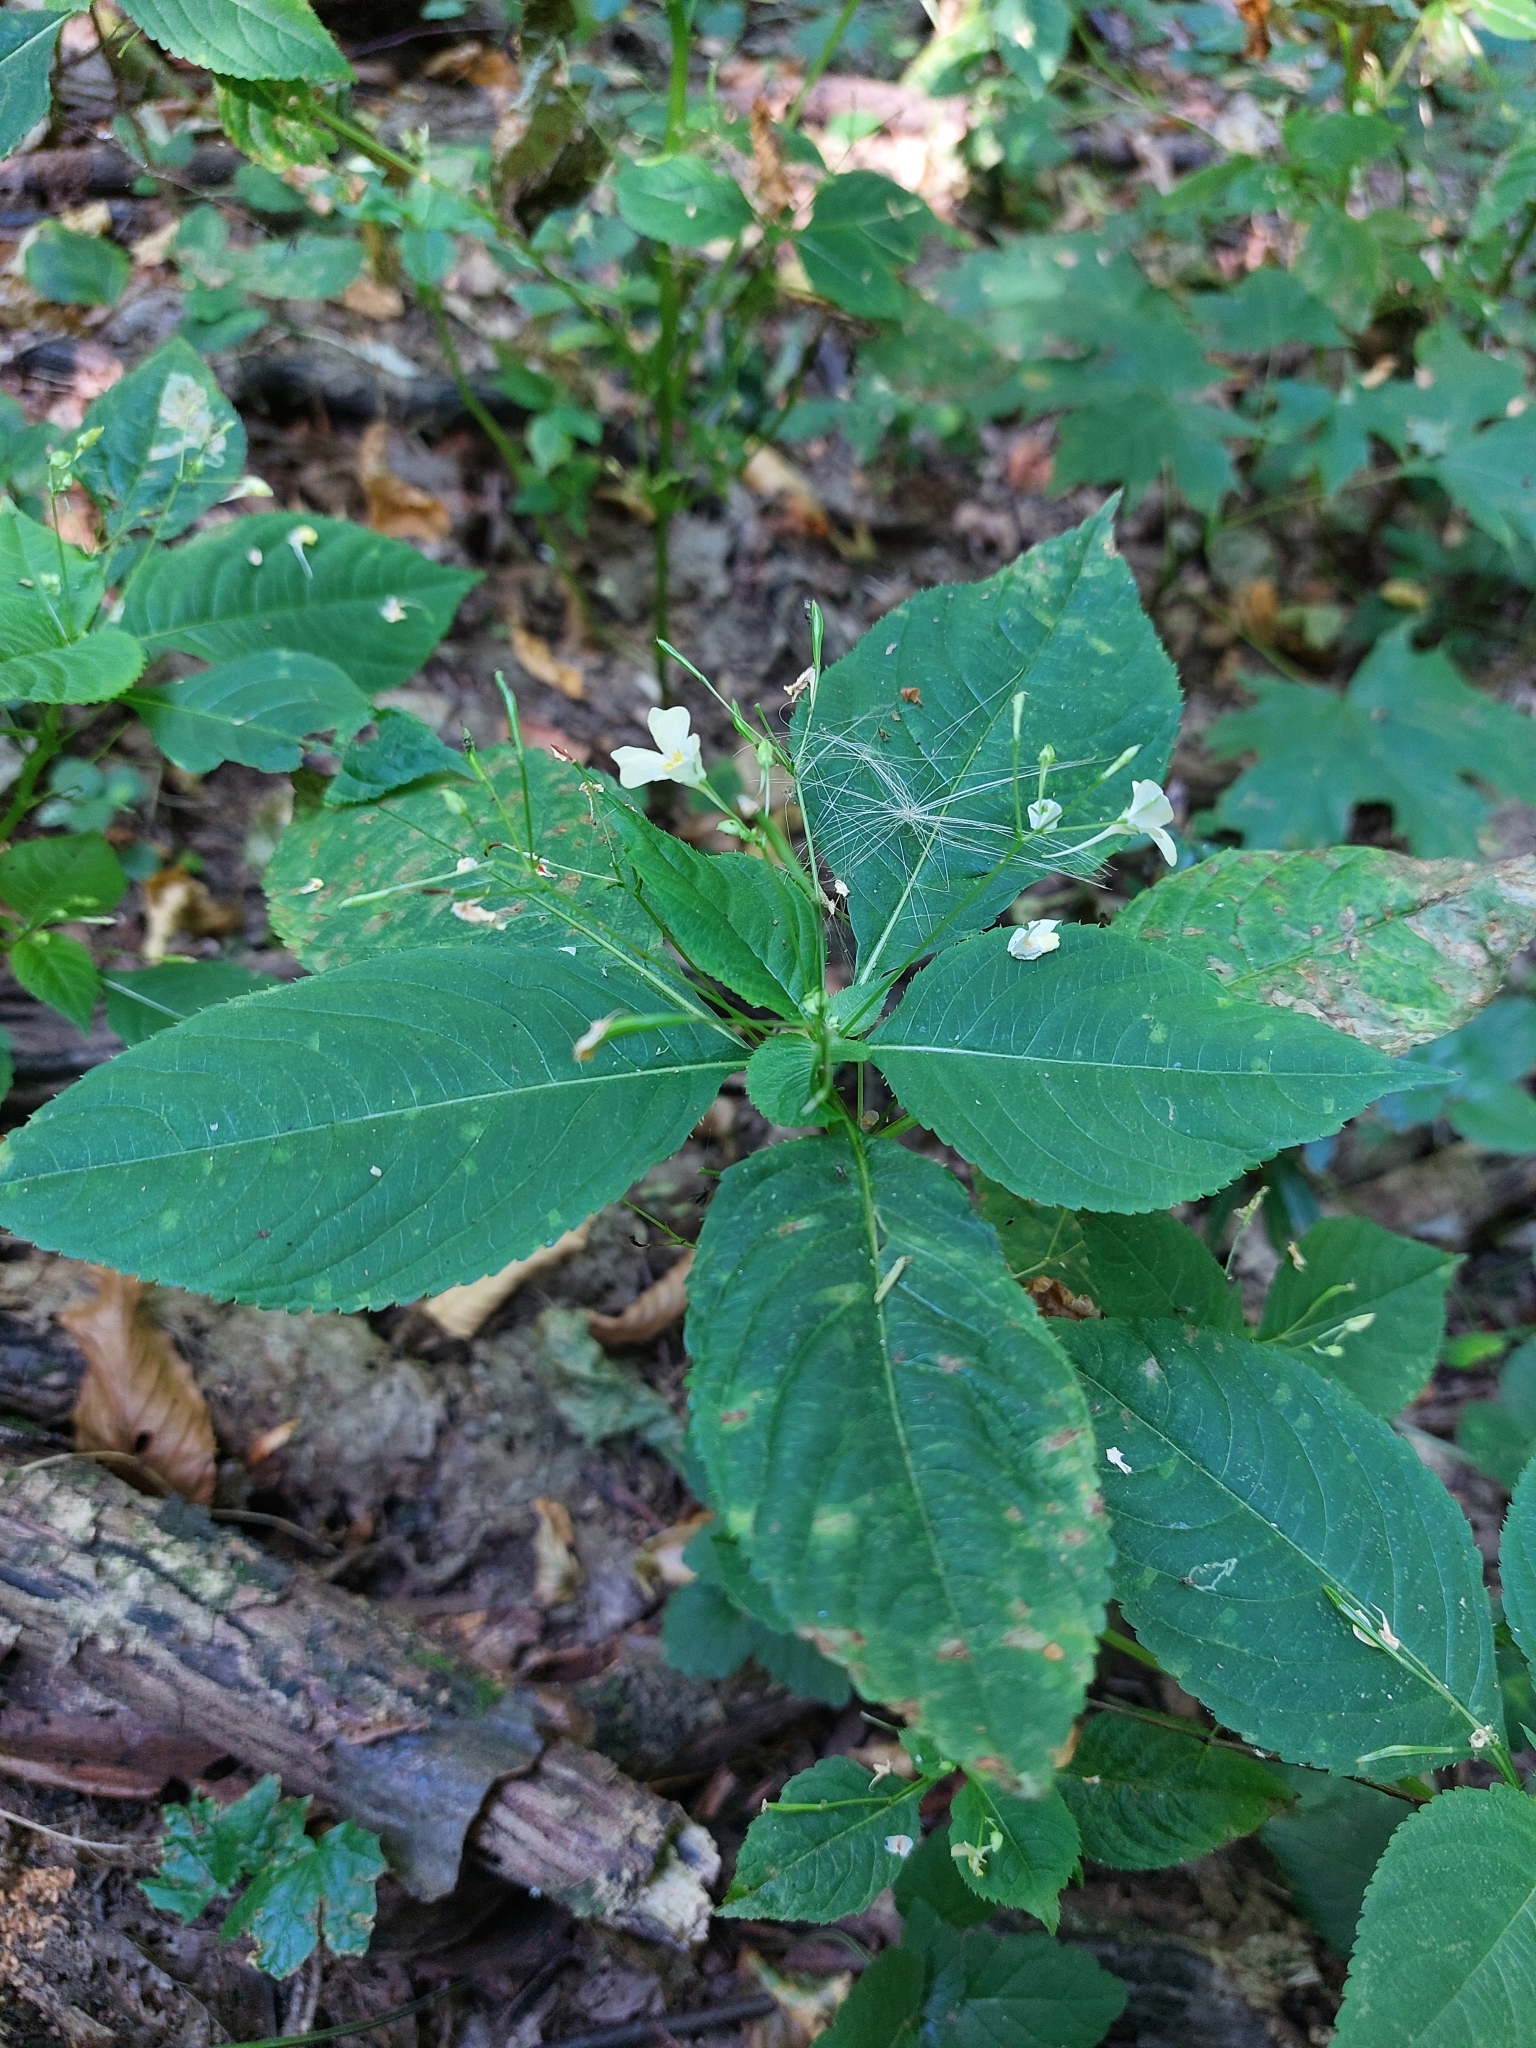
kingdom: Plantae
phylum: Tracheophyta
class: Magnoliopsida
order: Ericales
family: Balsaminaceae
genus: Impatiens
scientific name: Impatiens parviflora
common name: Small balsam
